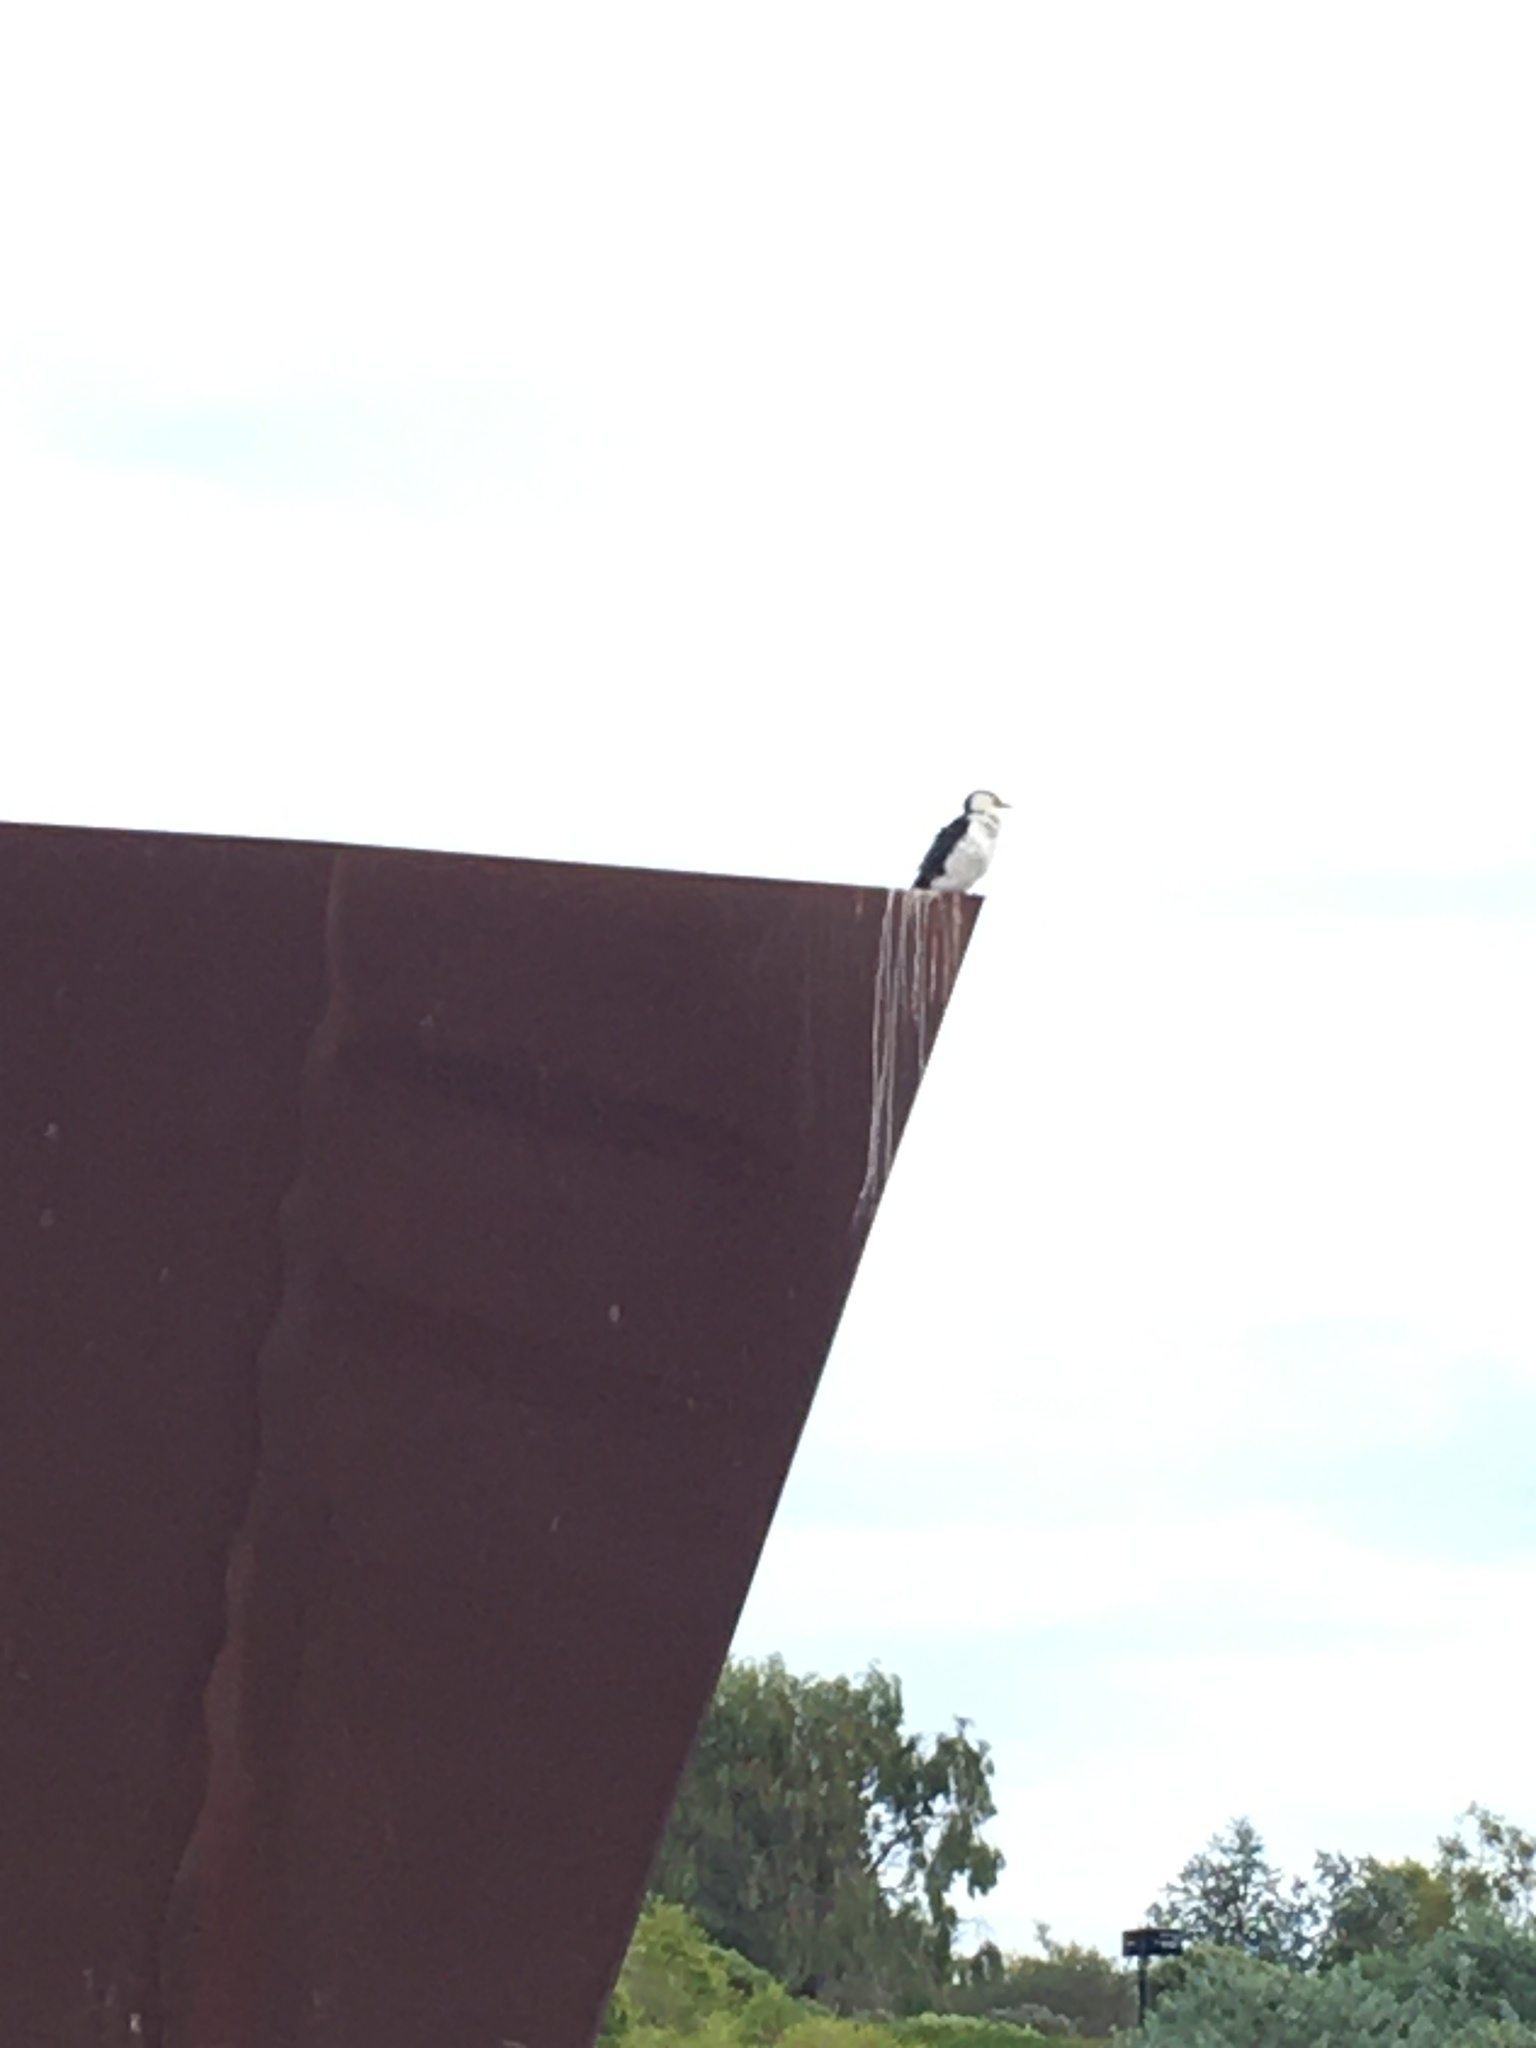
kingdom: Animalia
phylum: Chordata
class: Aves
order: Suliformes
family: Phalacrocoracidae
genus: Microcarbo
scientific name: Microcarbo melanoleucos
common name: Little pied cormorant
